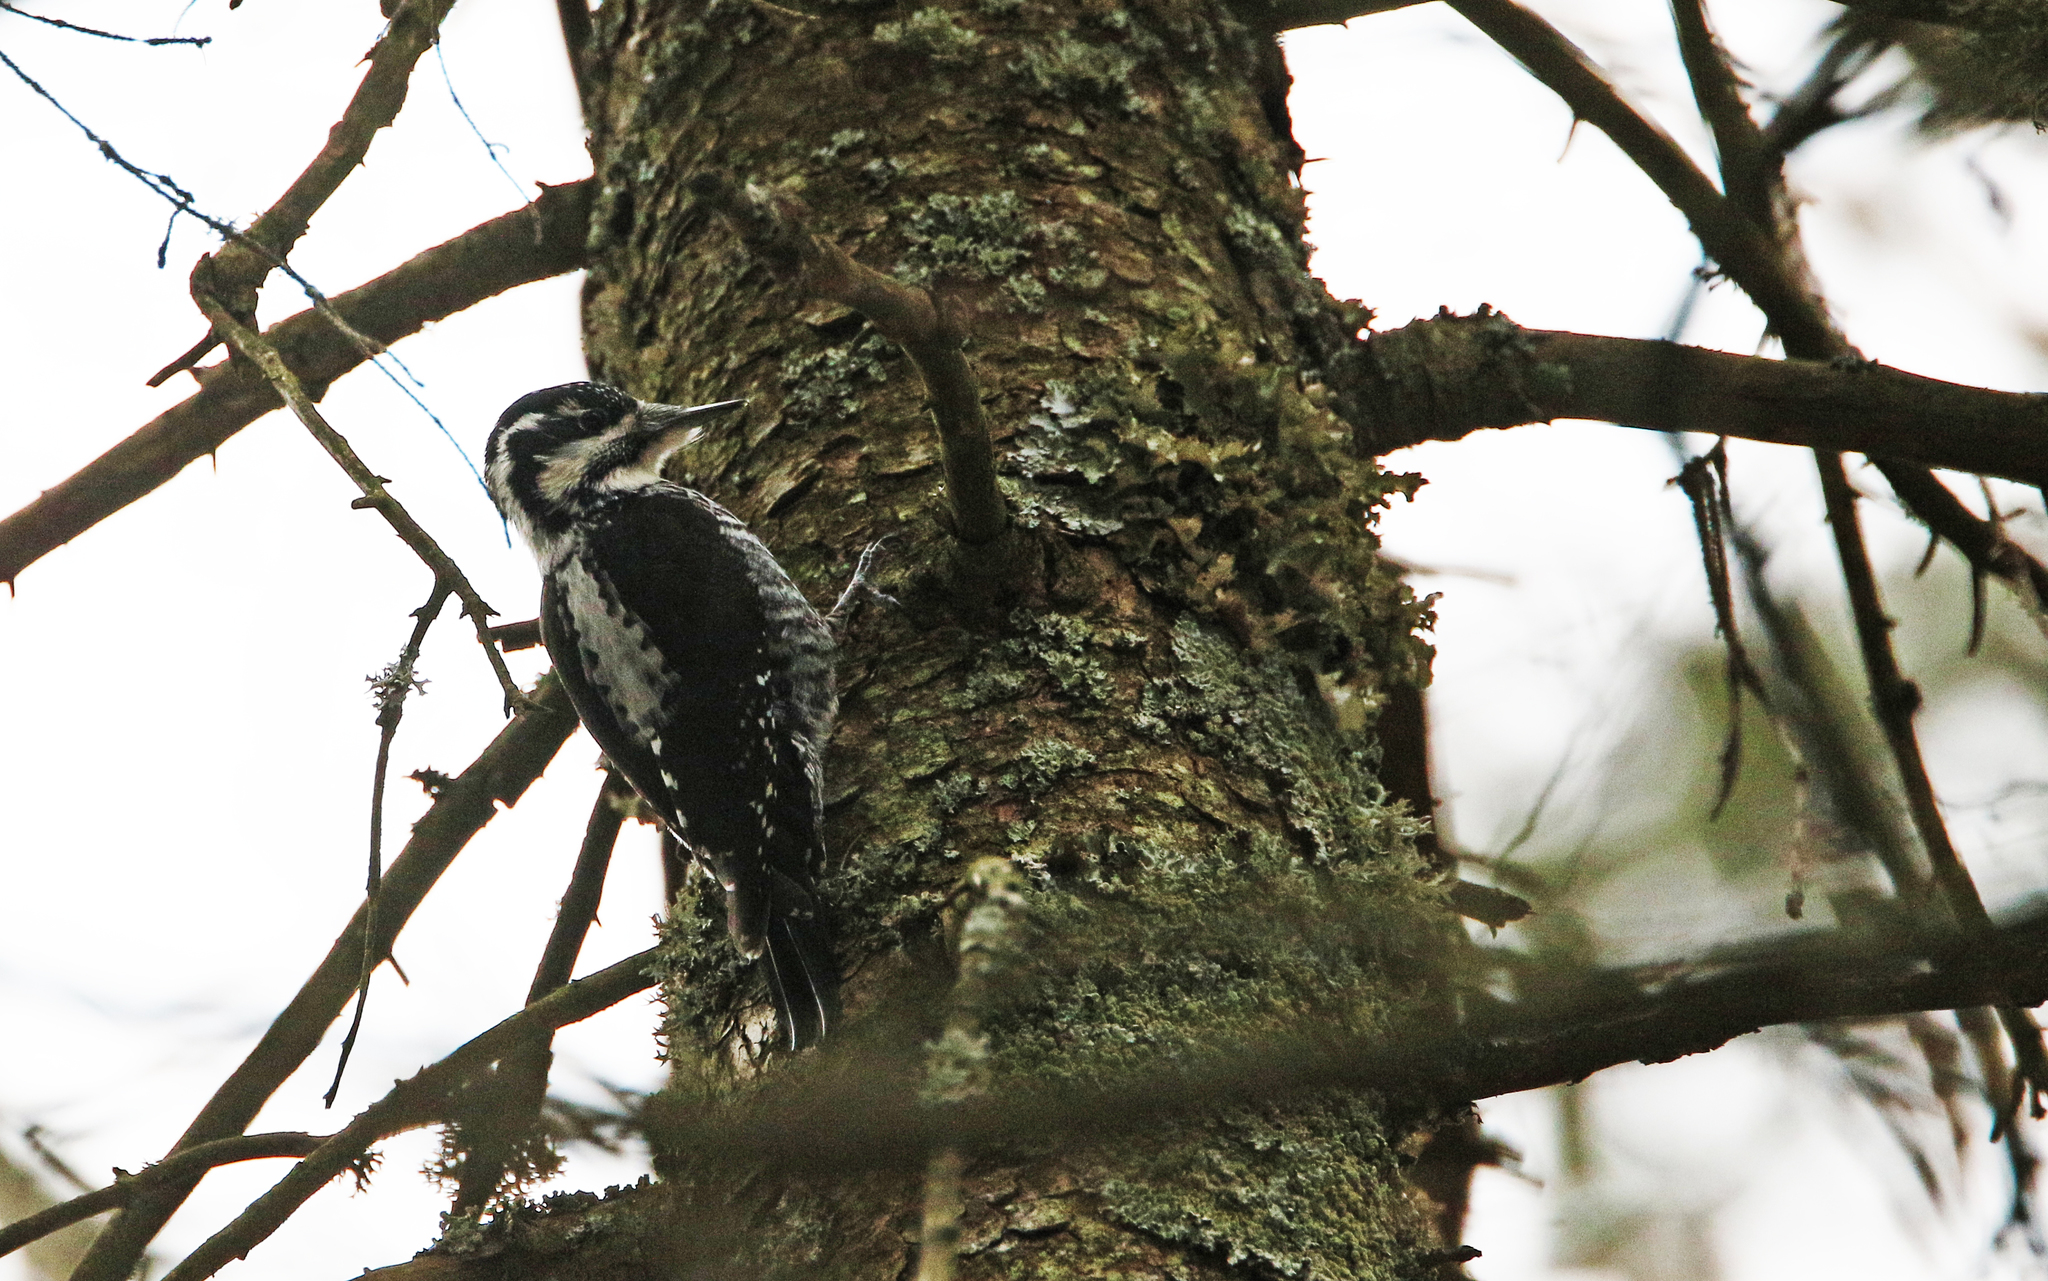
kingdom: Animalia
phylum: Chordata
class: Aves
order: Piciformes
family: Picidae
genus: Picoides
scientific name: Picoides tridactylus
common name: Eurasian three-toed woodpecker
